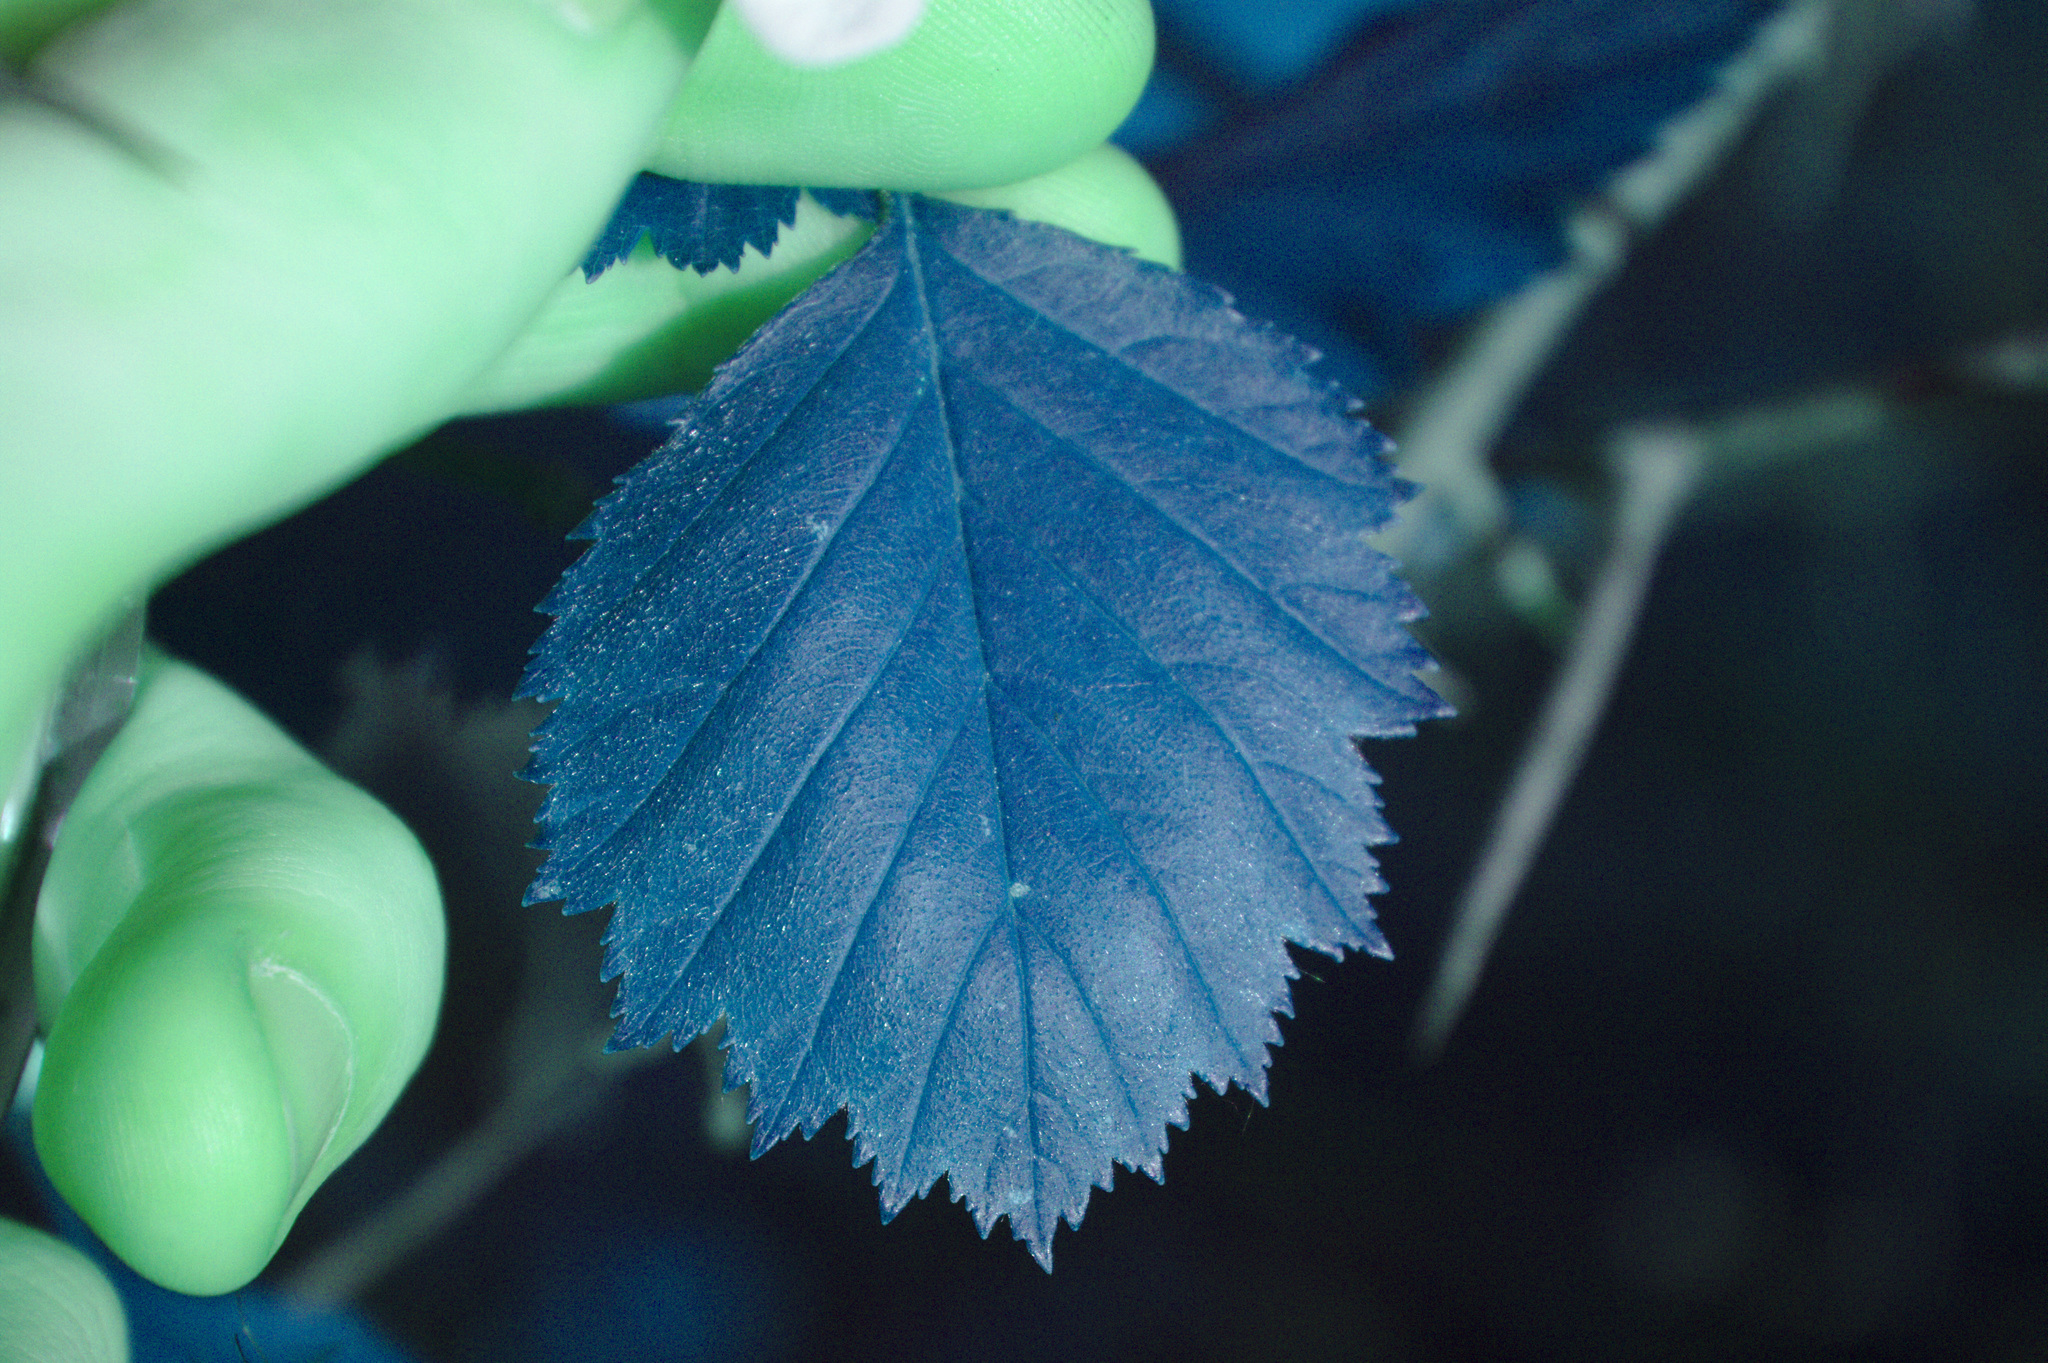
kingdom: Plantae
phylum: Tracheophyta
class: Magnoliopsida
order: Rosales
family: Rosaceae
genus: Crataegus
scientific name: Crataegus submollis
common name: Hairy cockspurthorn
